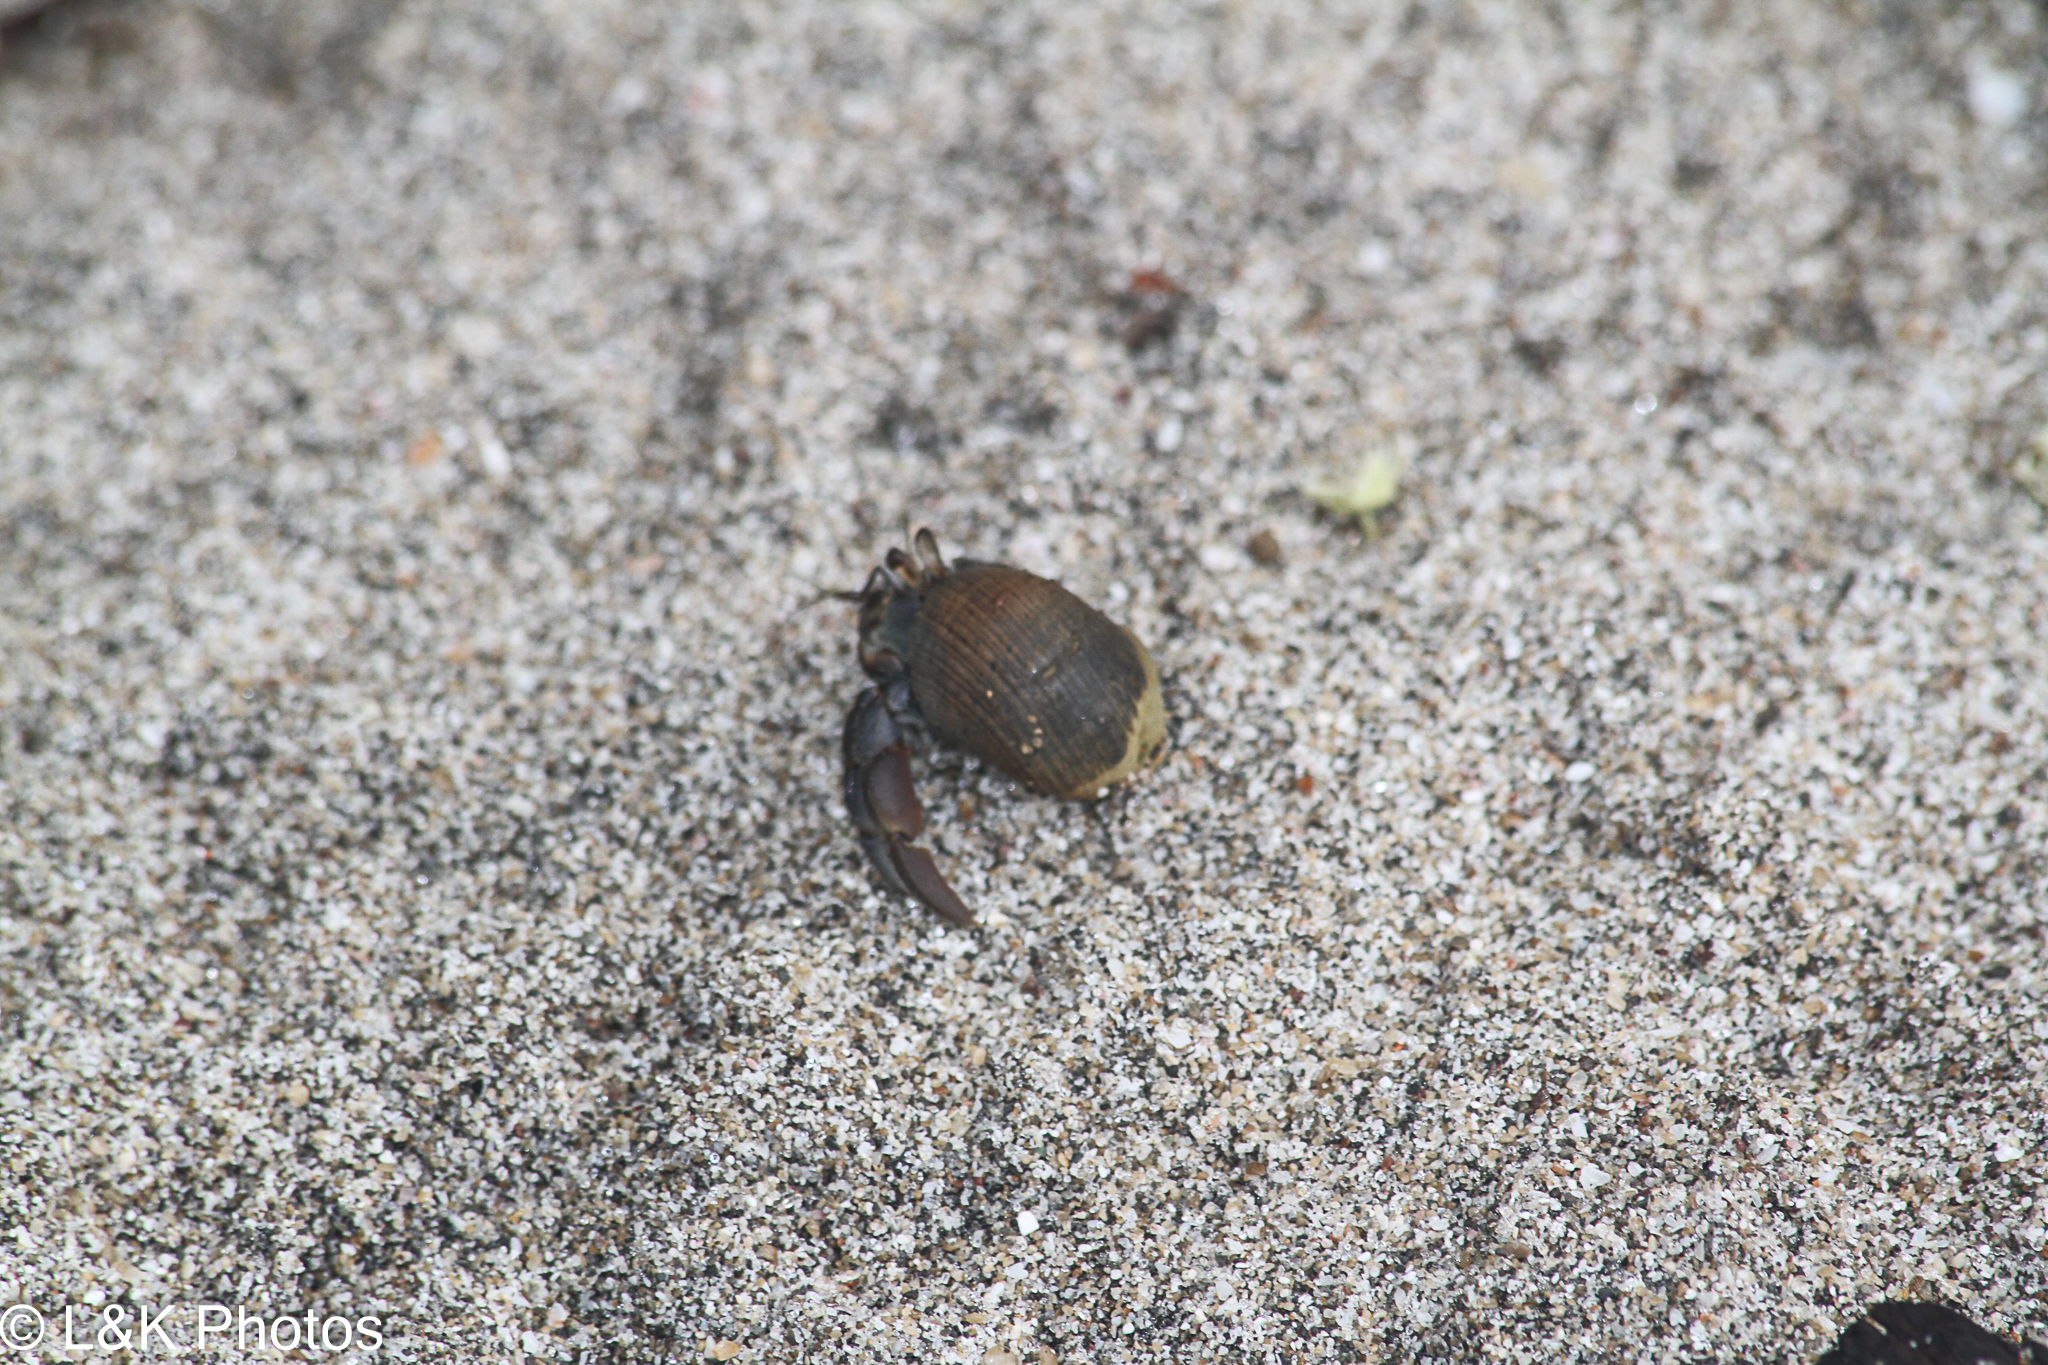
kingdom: Animalia
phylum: Arthropoda
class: Malacostraca
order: Decapoda
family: Coenobitidae
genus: Coenobita
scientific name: Coenobita compressus
